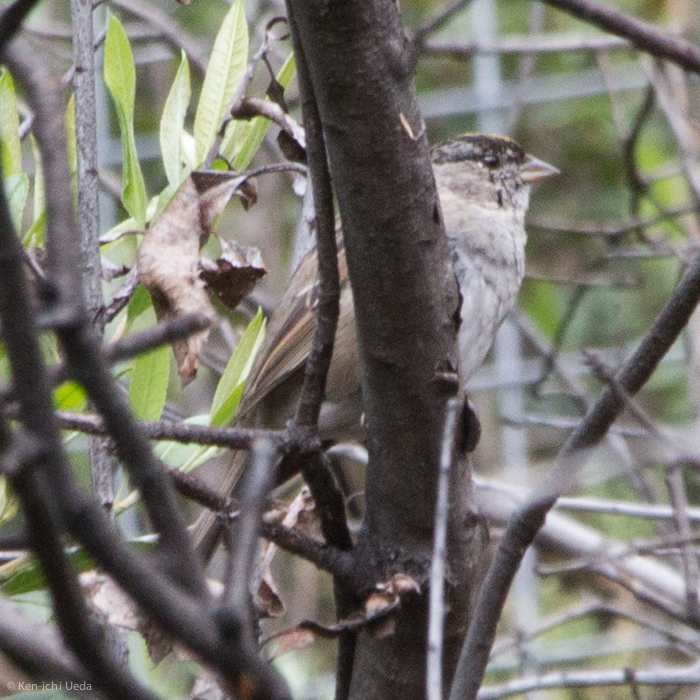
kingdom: Animalia
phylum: Chordata
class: Aves
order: Passeriformes
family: Passerellidae
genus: Zonotrichia
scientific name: Zonotrichia atricapilla
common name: Golden-crowned sparrow
